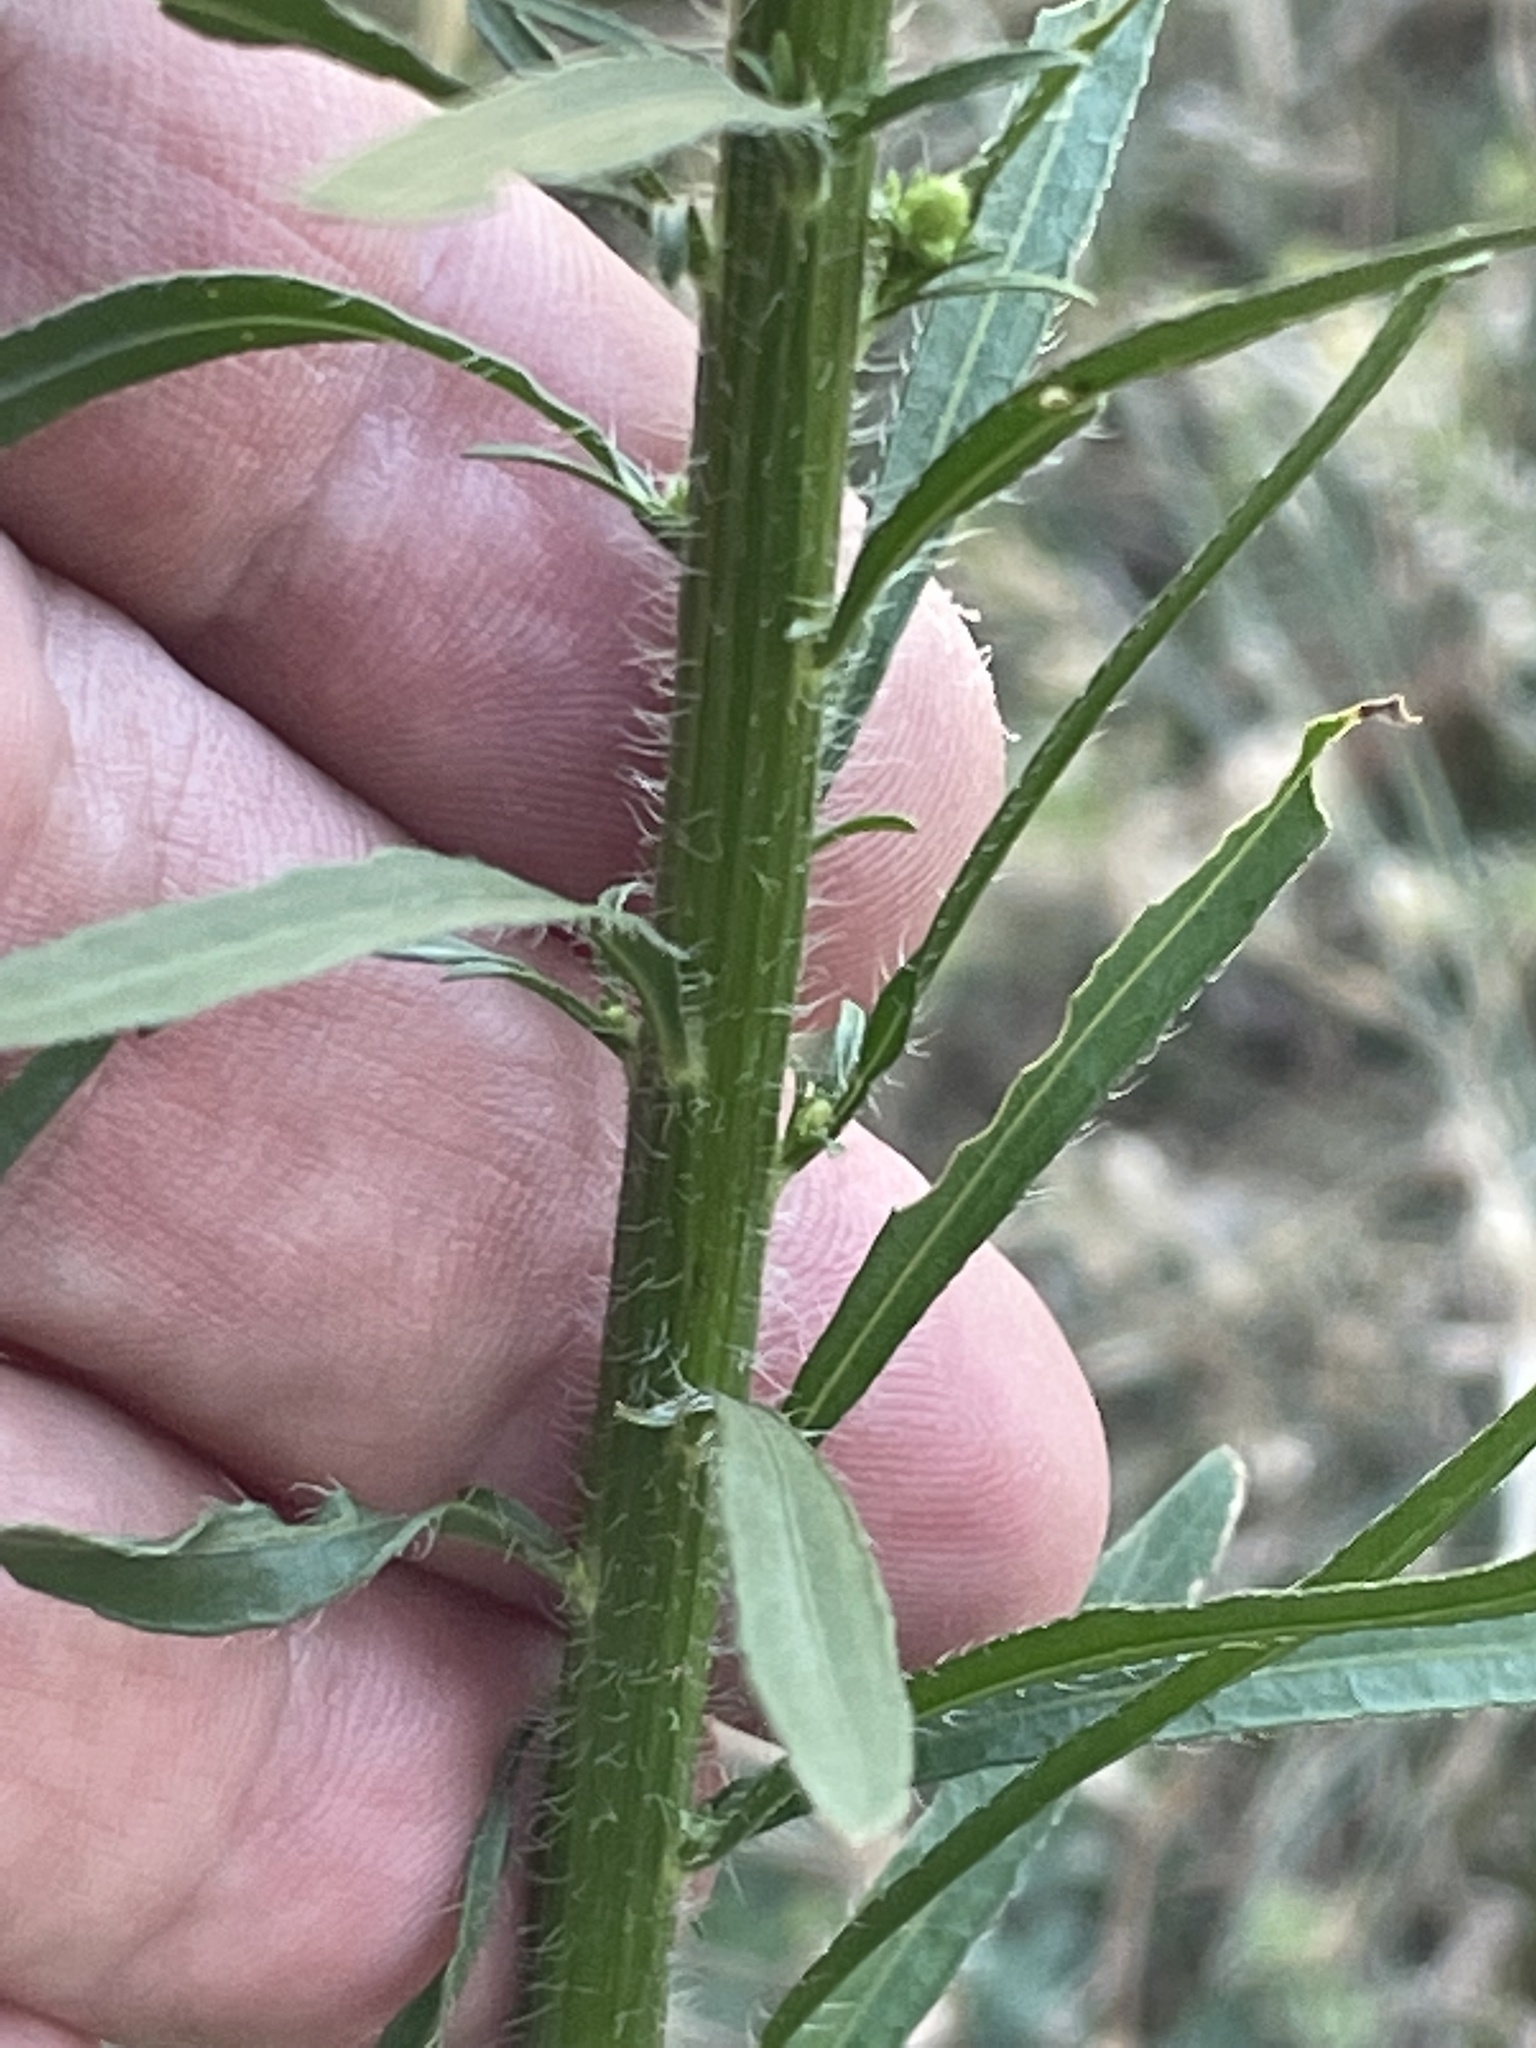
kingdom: Plantae
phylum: Tracheophyta
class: Magnoliopsida
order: Asterales
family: Asteraceae
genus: Erigeron
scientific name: Erigeron canadensis
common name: Canadian fleabane
